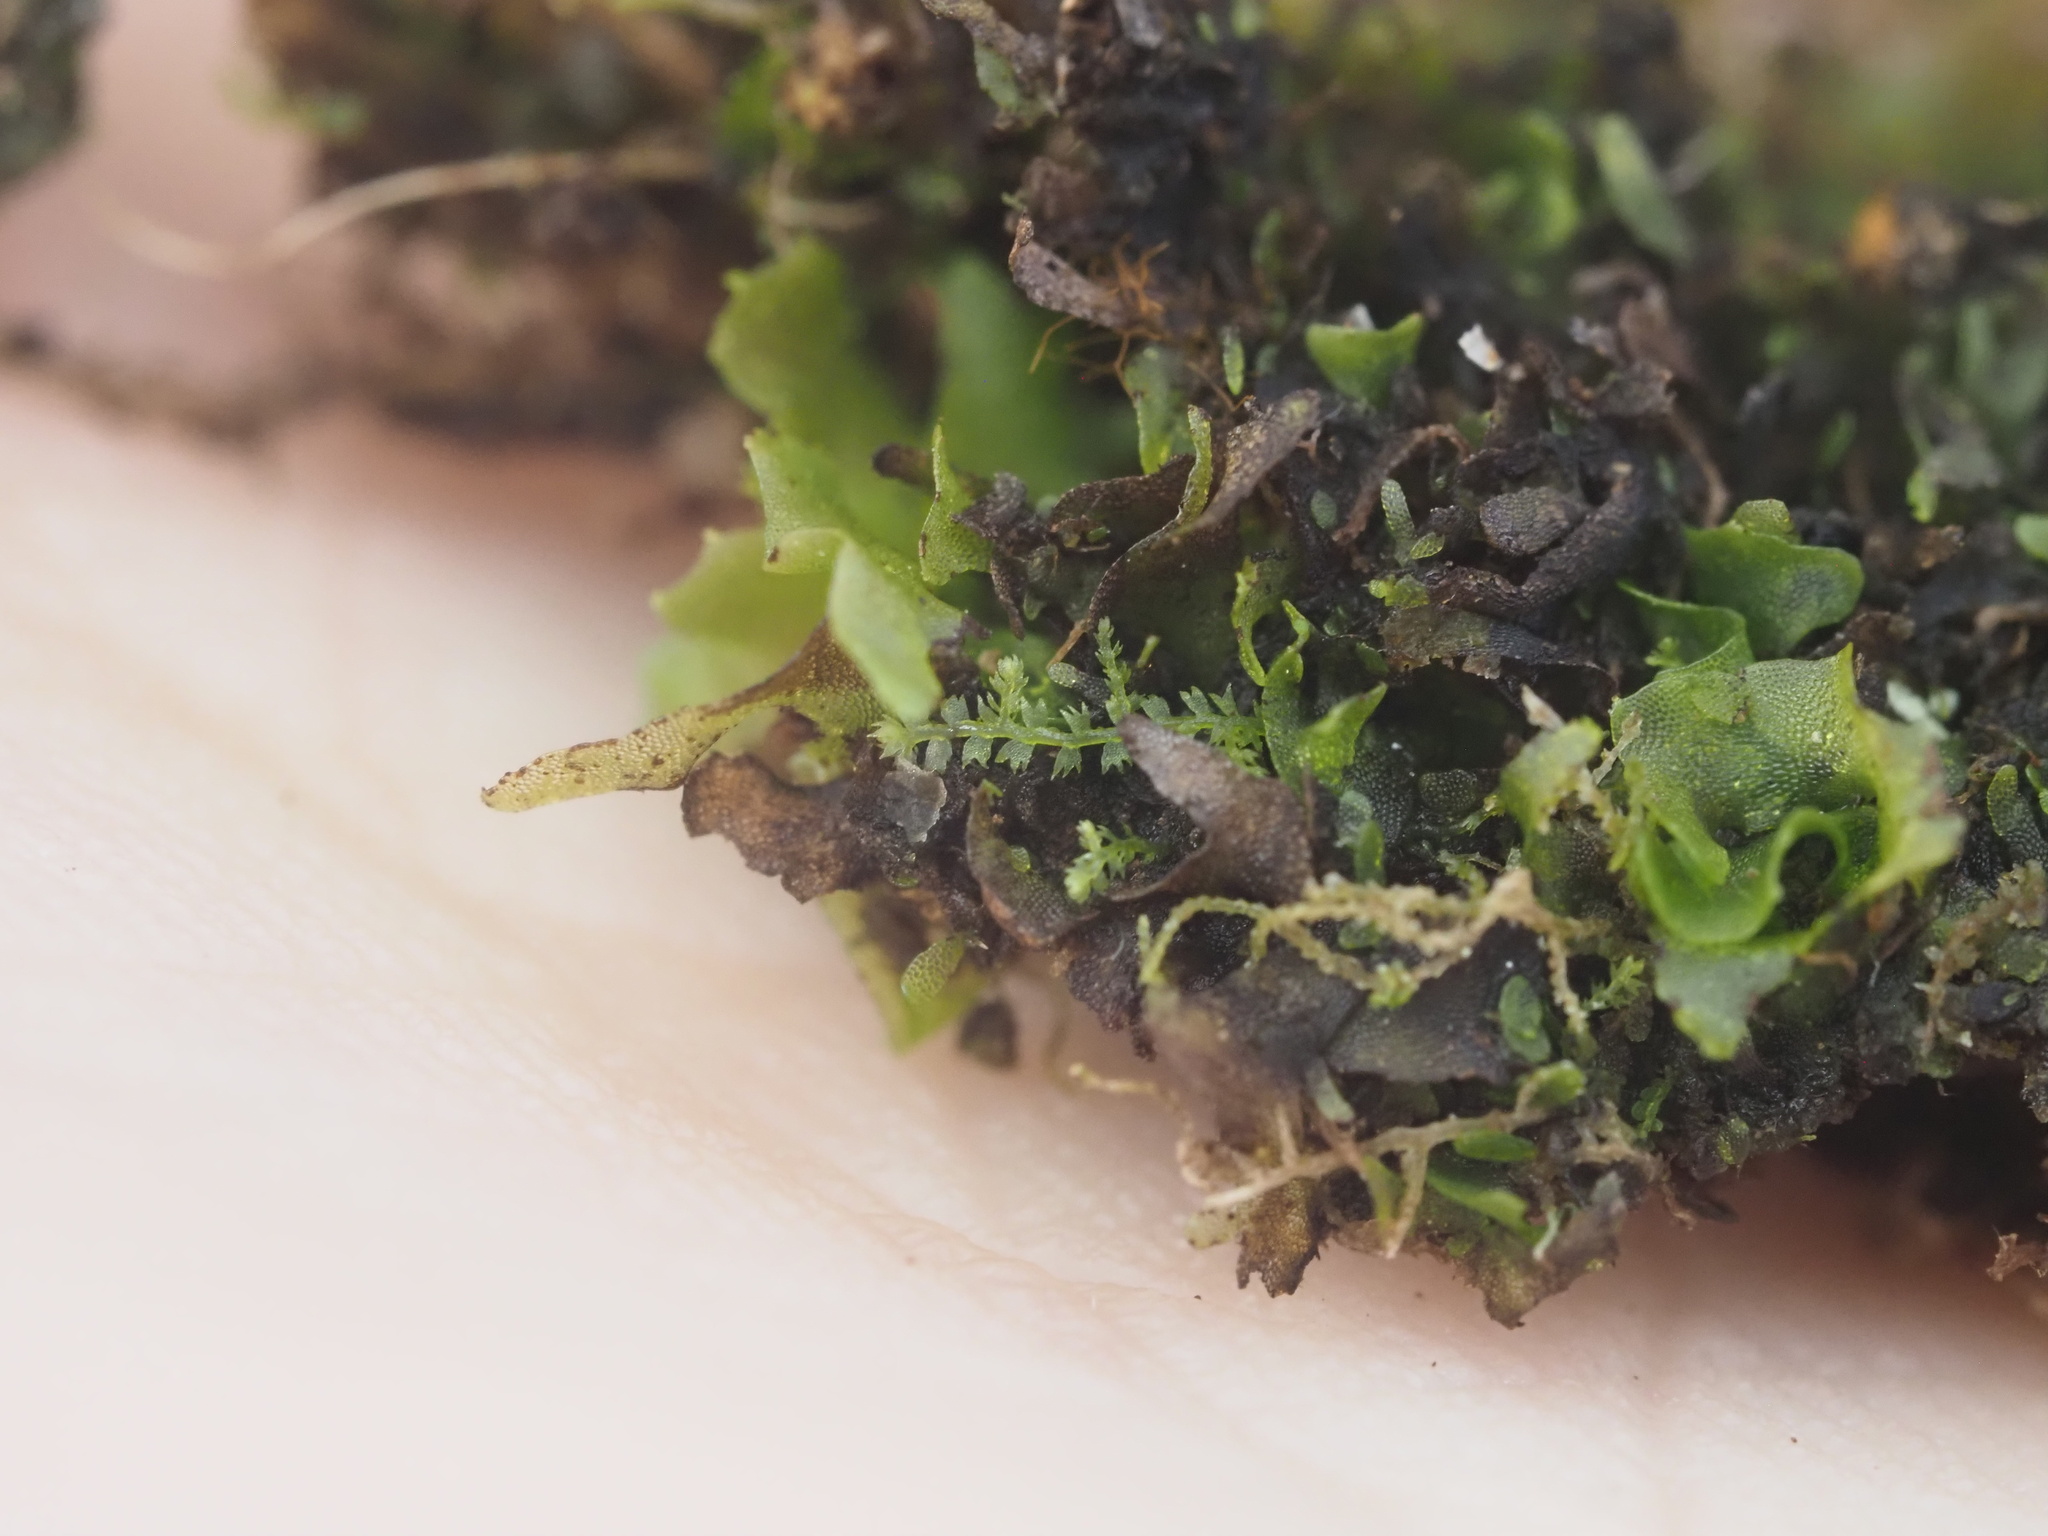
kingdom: Plantae
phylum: Marchantiophyta
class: Jungermanniopsida
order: Jungermanniales
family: Lepidoziaceae
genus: Lepidozia
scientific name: Lepidozia australis
